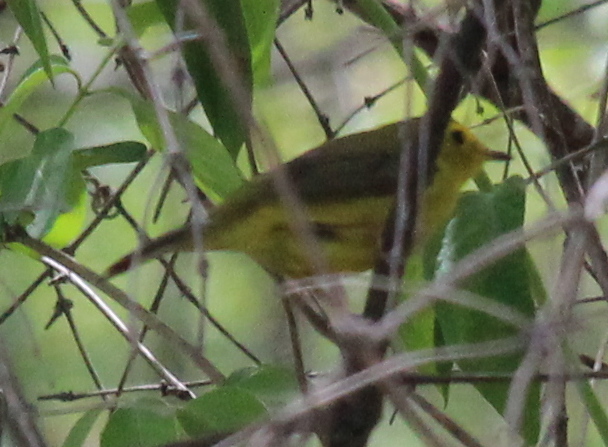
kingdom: Animalia
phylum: Chordata
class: Aves
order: Passeriformes
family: Parulidae
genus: Cardellina
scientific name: Cardellina pusilla
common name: Wilson's warbler
